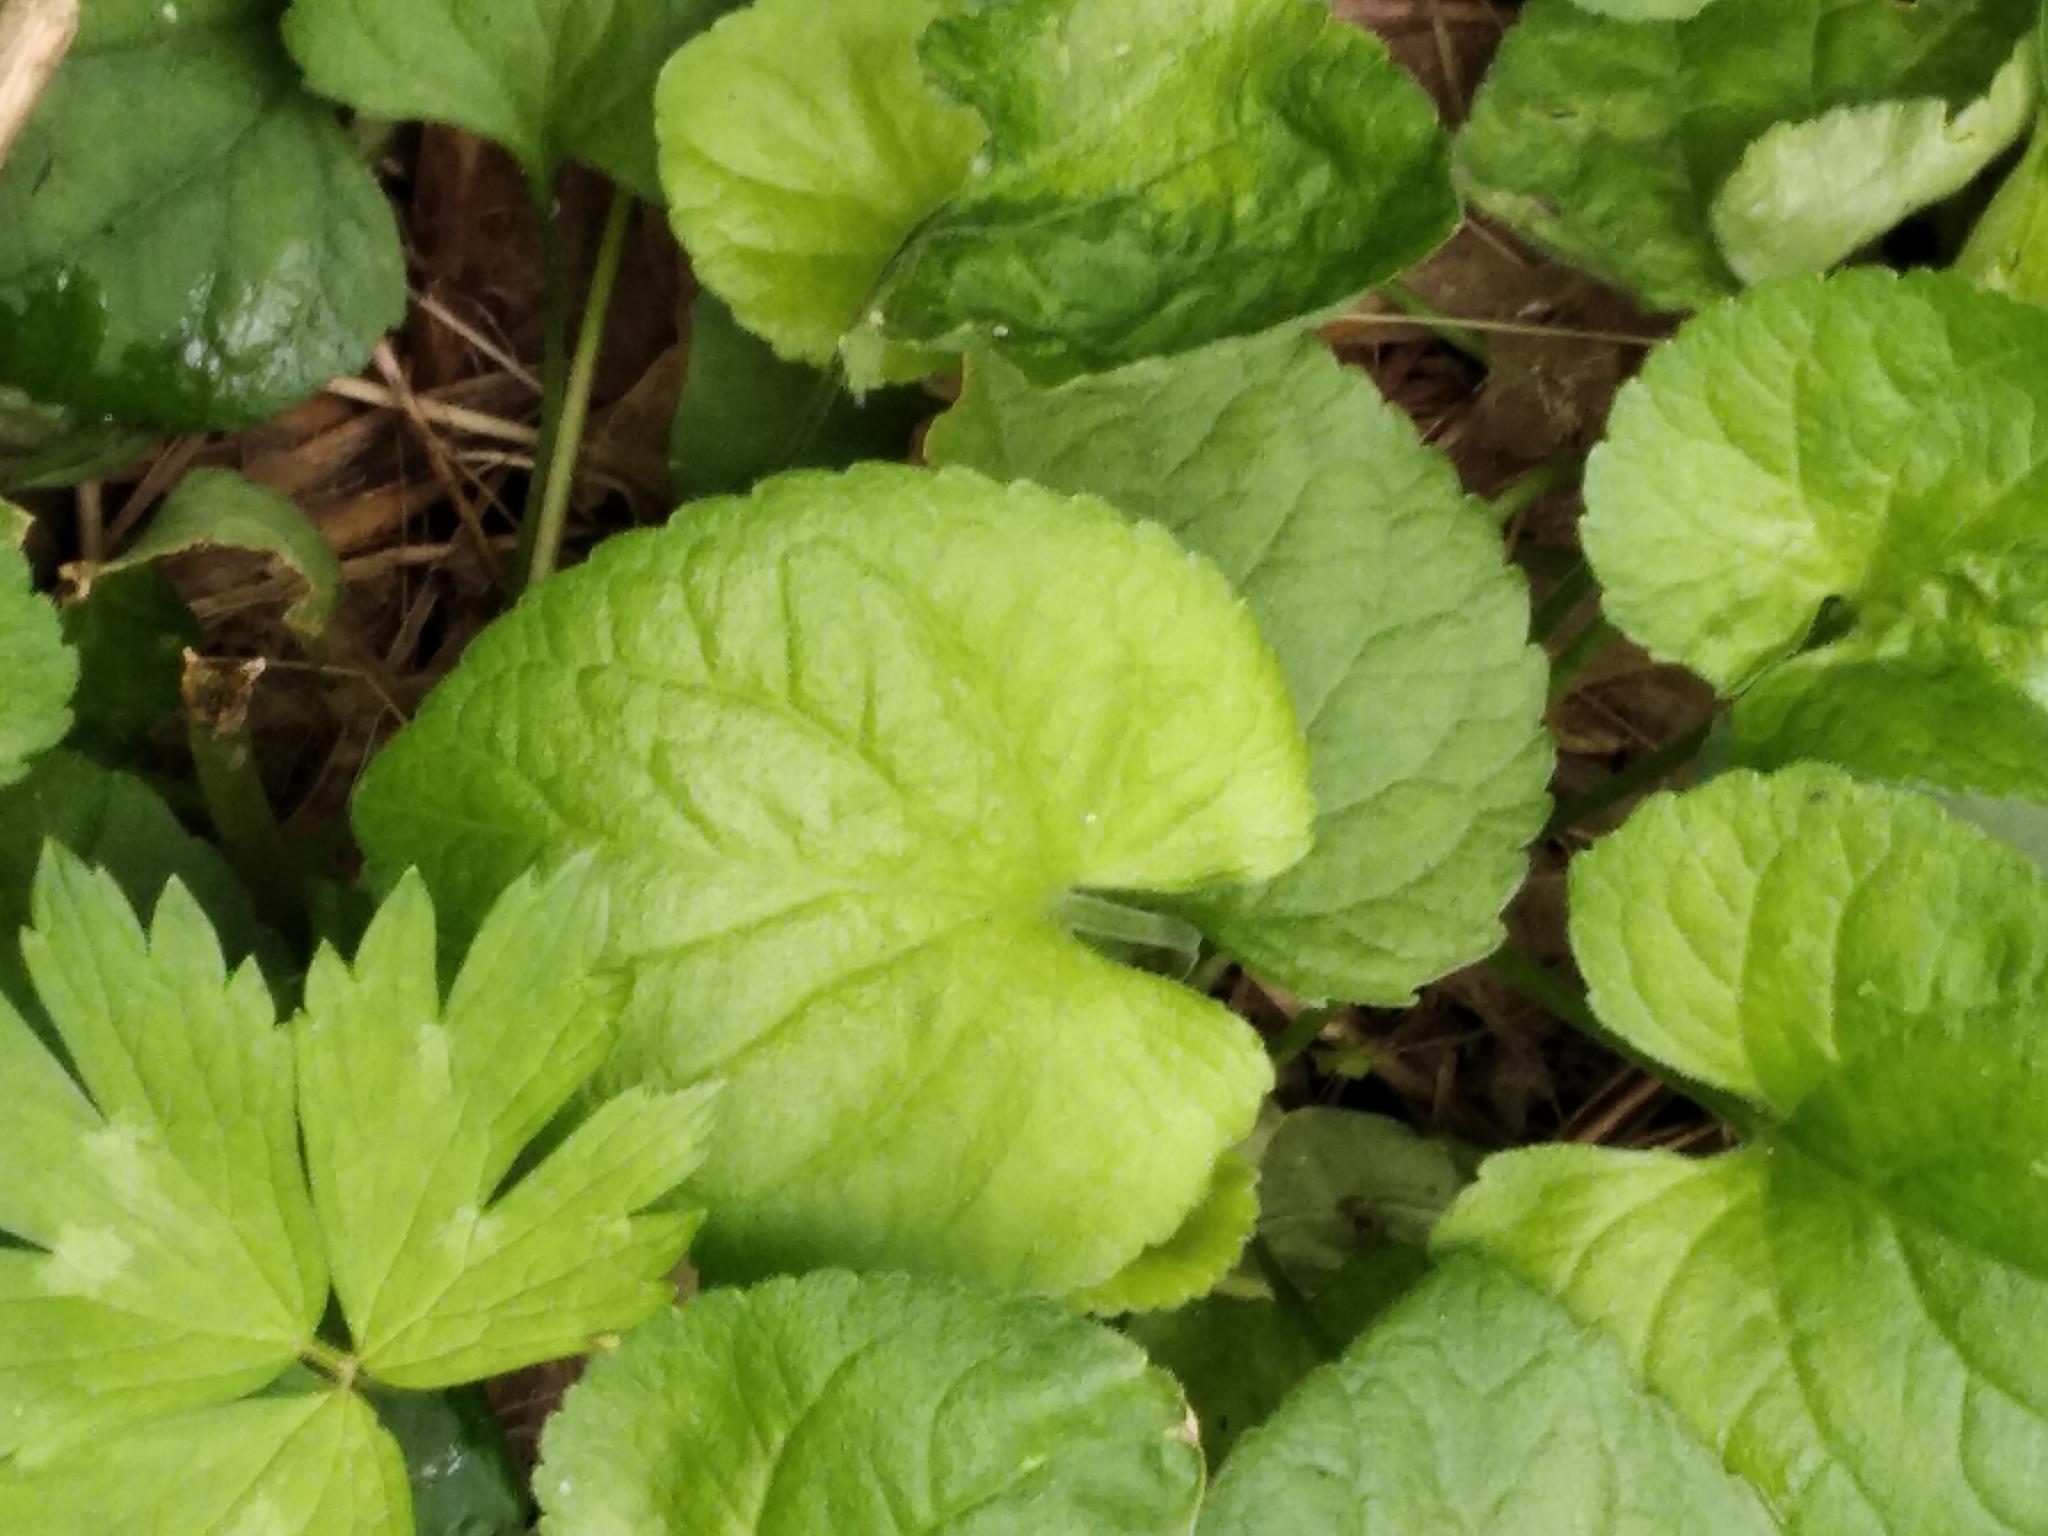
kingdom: Plantae
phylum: Tracheophyta
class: Magnoliopsida
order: Malpighiales
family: Violaceae
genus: Viola
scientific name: Viola odorata
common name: Sweet violet
